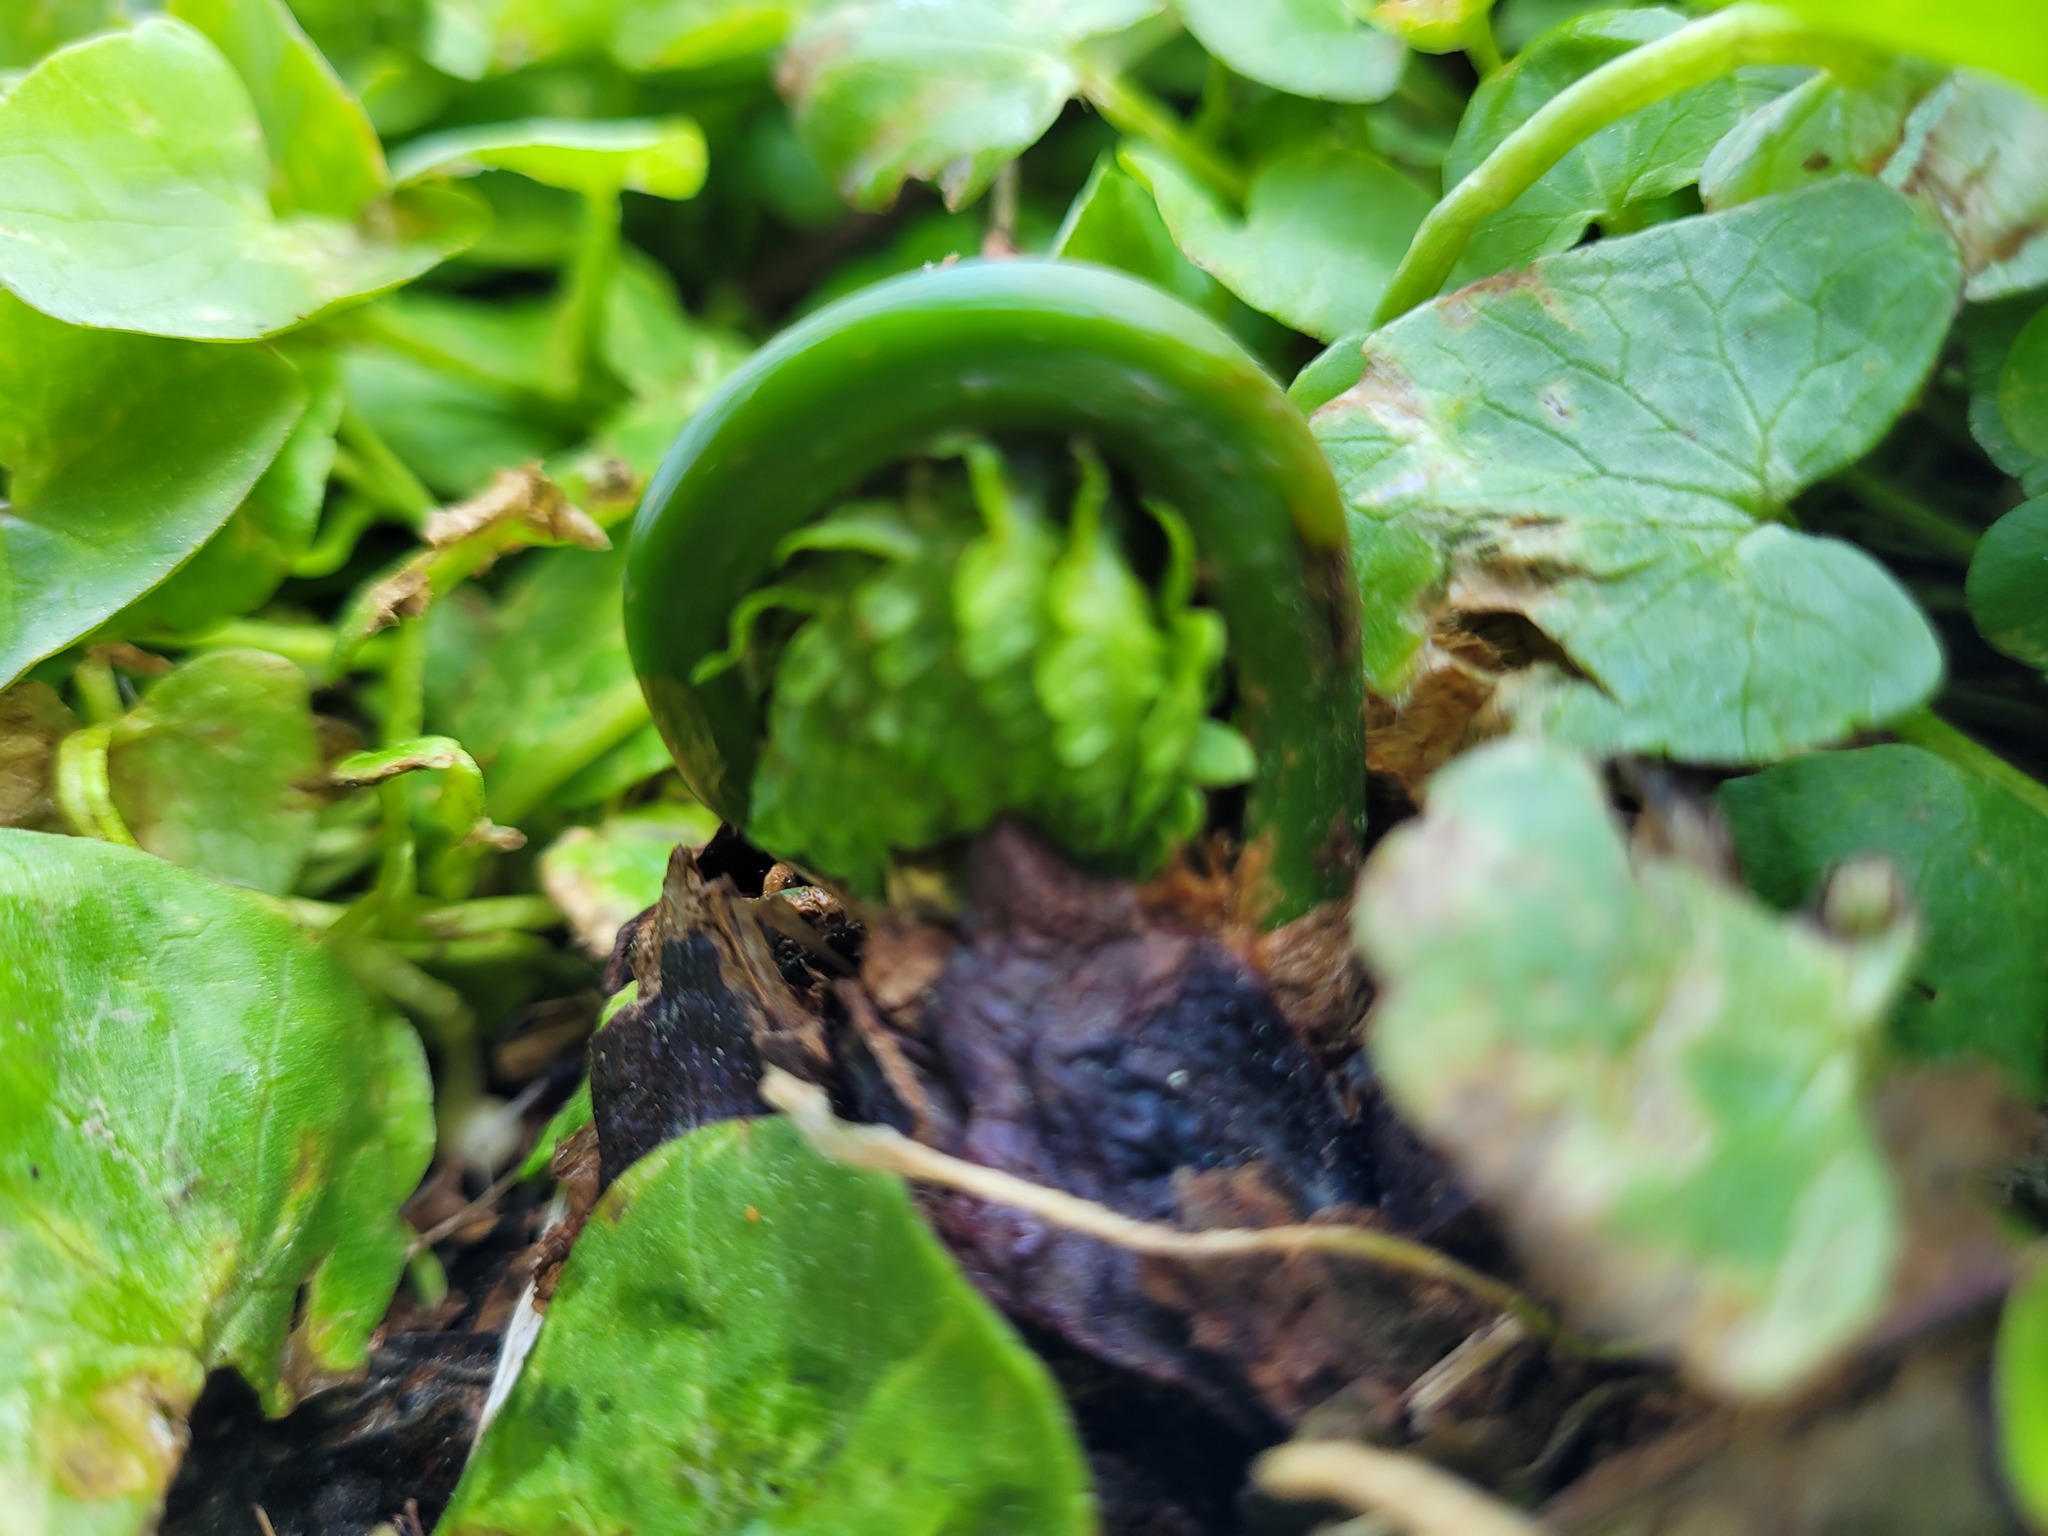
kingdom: Plantae
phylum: Tracheophyta
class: Polypodiopsida
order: Polypodiales
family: Onocleaceae
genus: Matteuccia
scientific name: Matteuccia struthiopteris
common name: Ostrich fern
